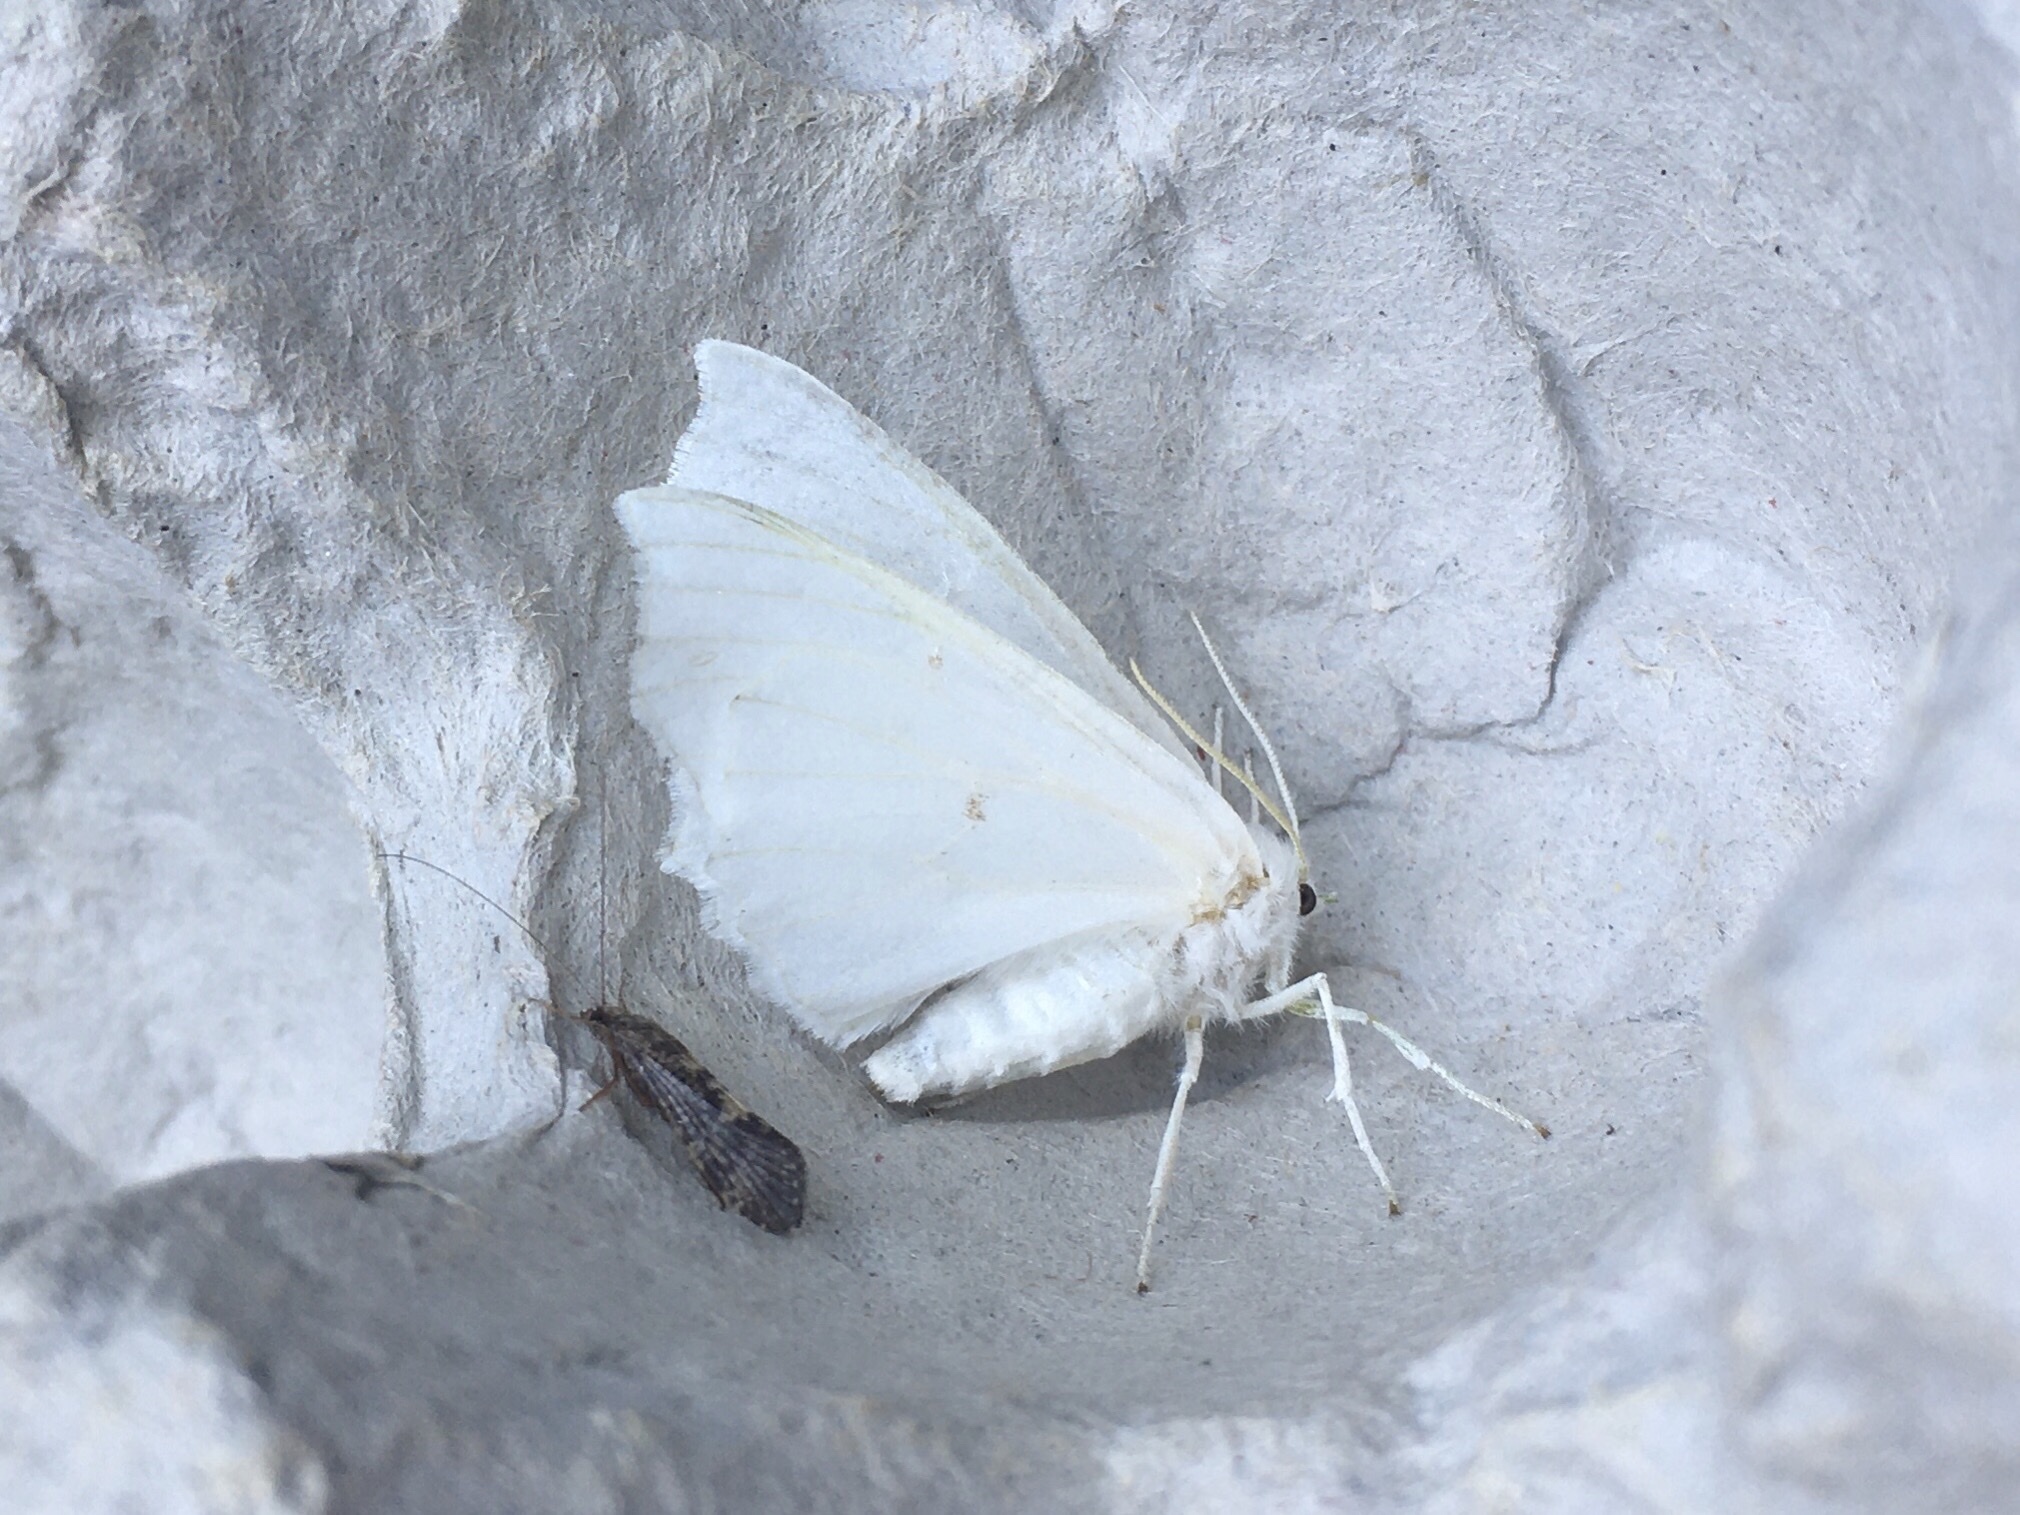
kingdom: Animalia
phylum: Arthropoda
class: Insecta
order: Lepidoptera
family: Geometridae
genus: Ennomos
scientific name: Ennomos subsignaria
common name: Elm spanworm
